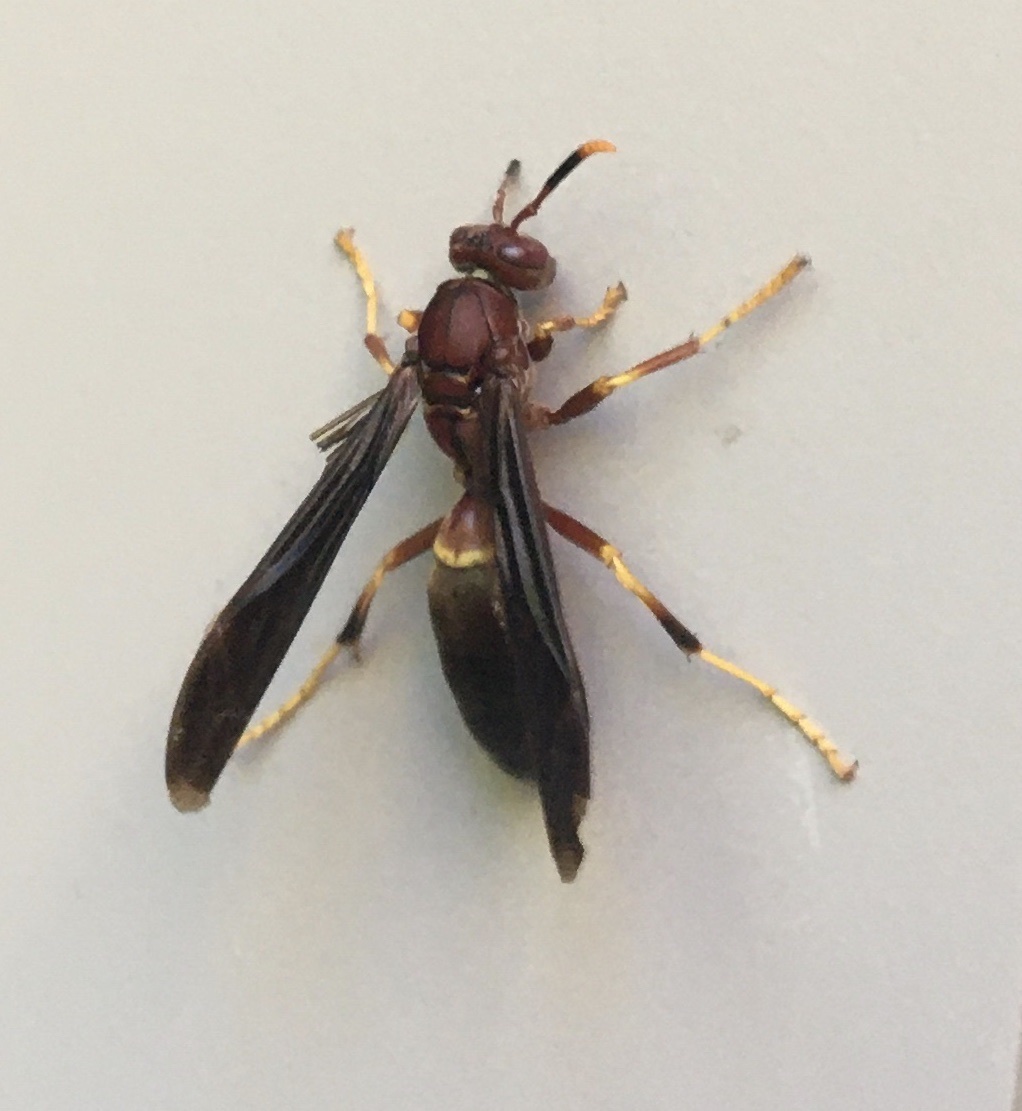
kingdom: Animalia
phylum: Arthropoda
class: Insecta
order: Hymenoptera
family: Eumenidae
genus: Polistes
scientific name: Polistes annularis
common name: Ringed paper wasp
